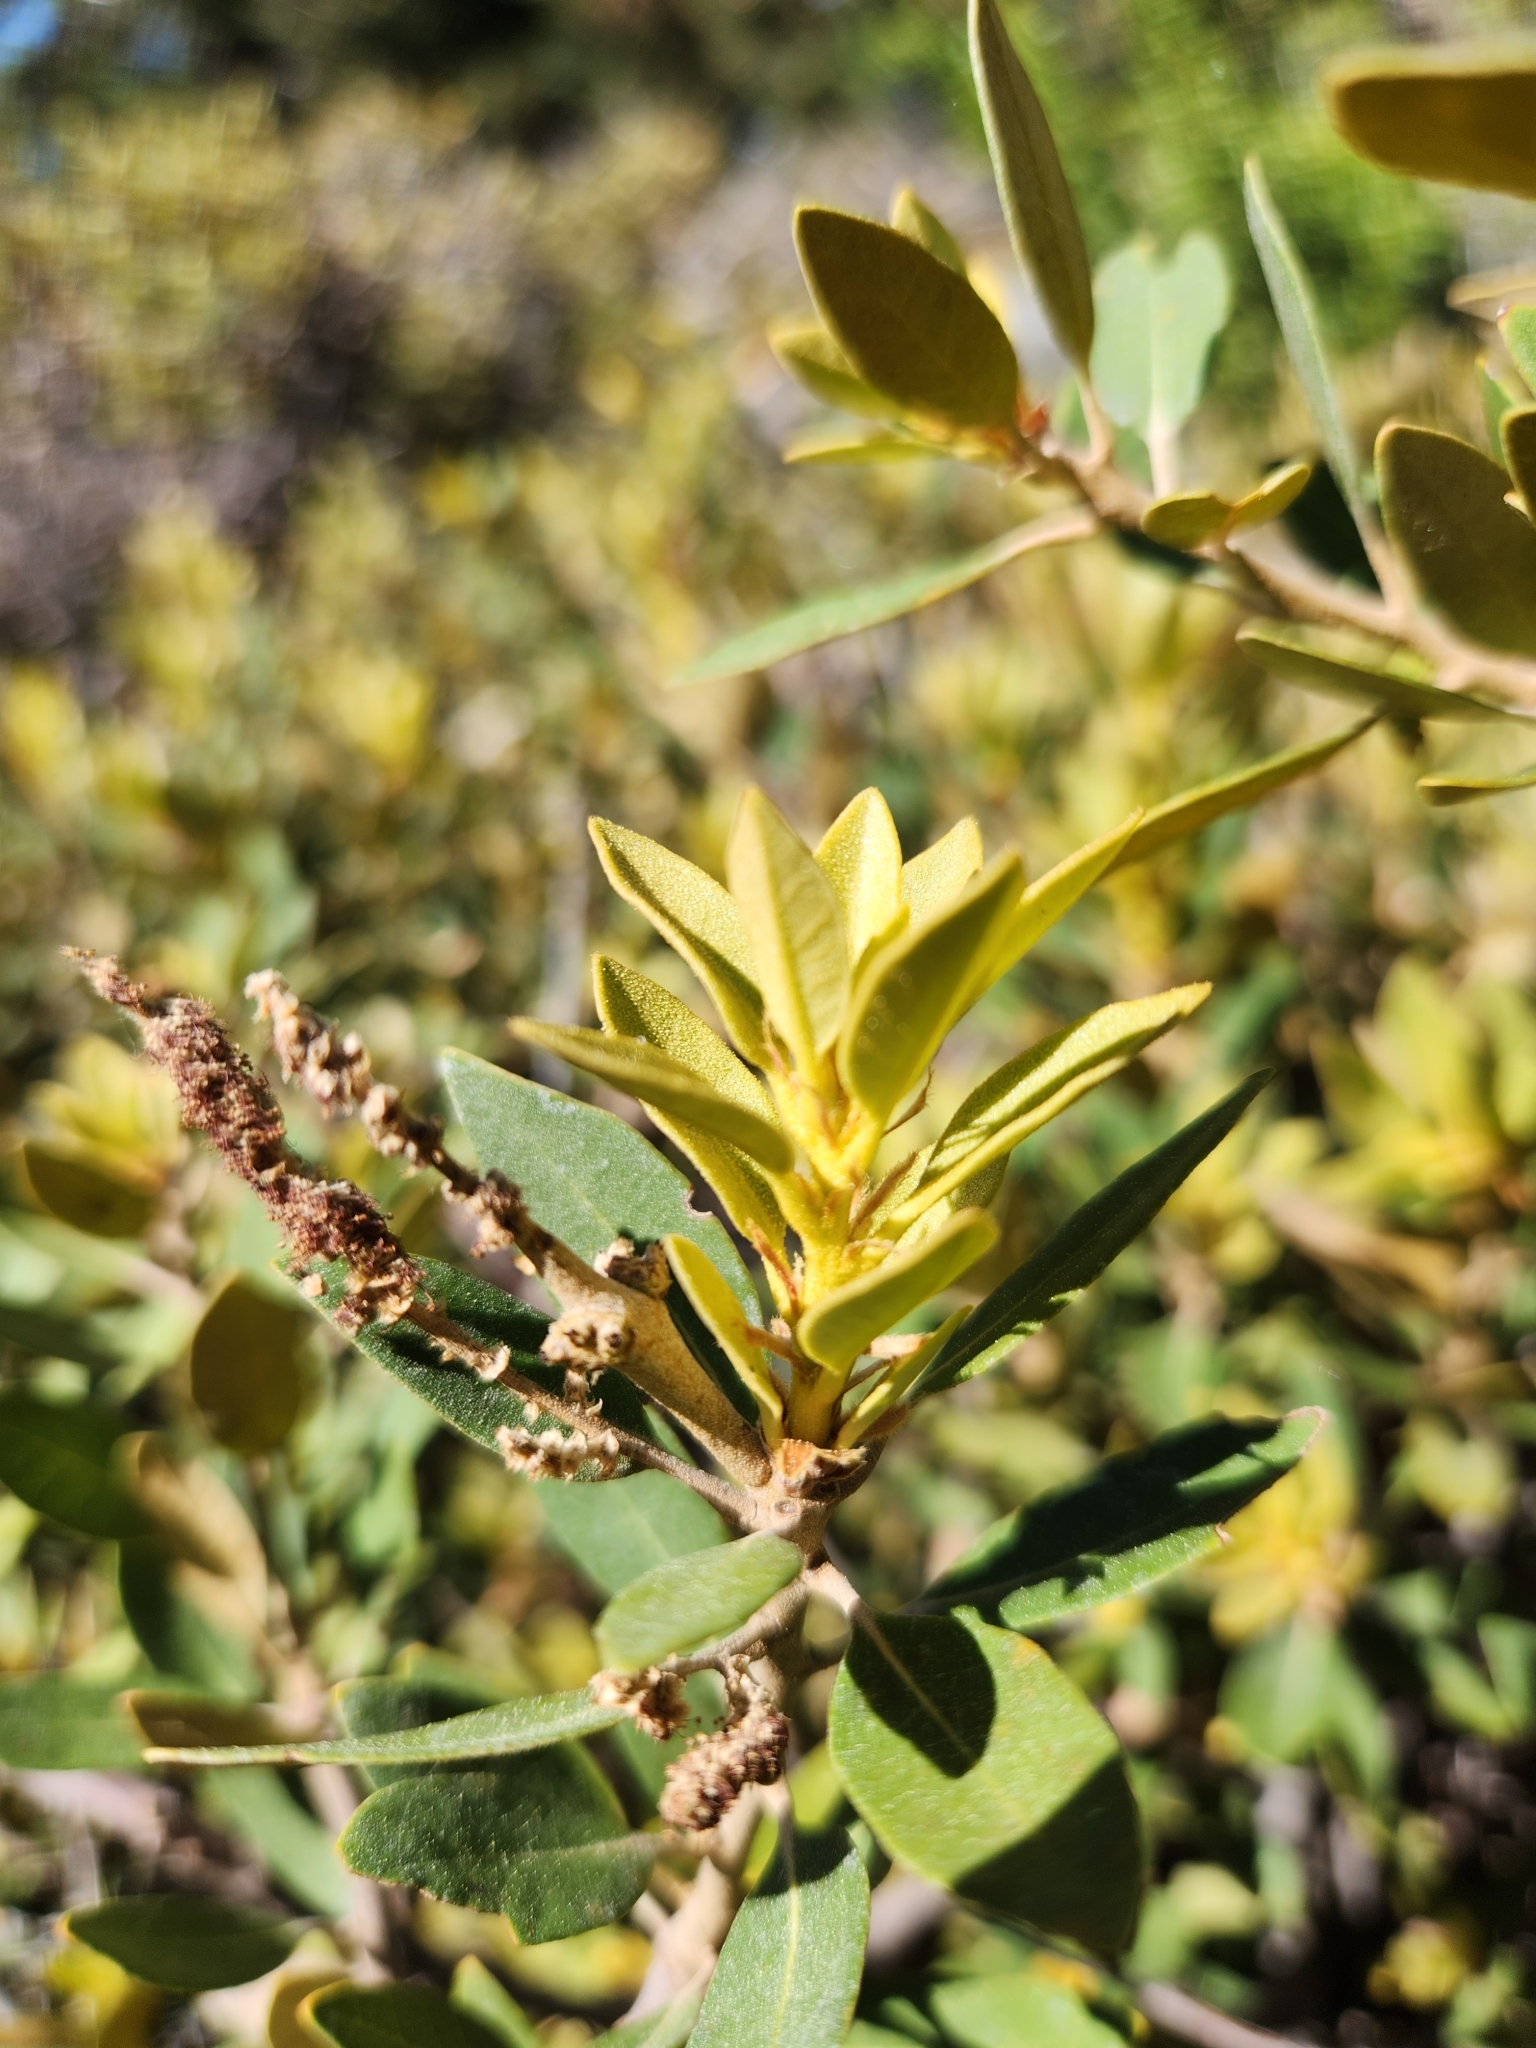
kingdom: Plantae
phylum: Tracheophyta
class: Magnoliopsida
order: Fagales
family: Fagaceae
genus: Chrysolepis
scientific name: Chrysolepis sempervirens
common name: Bush chinquapin
